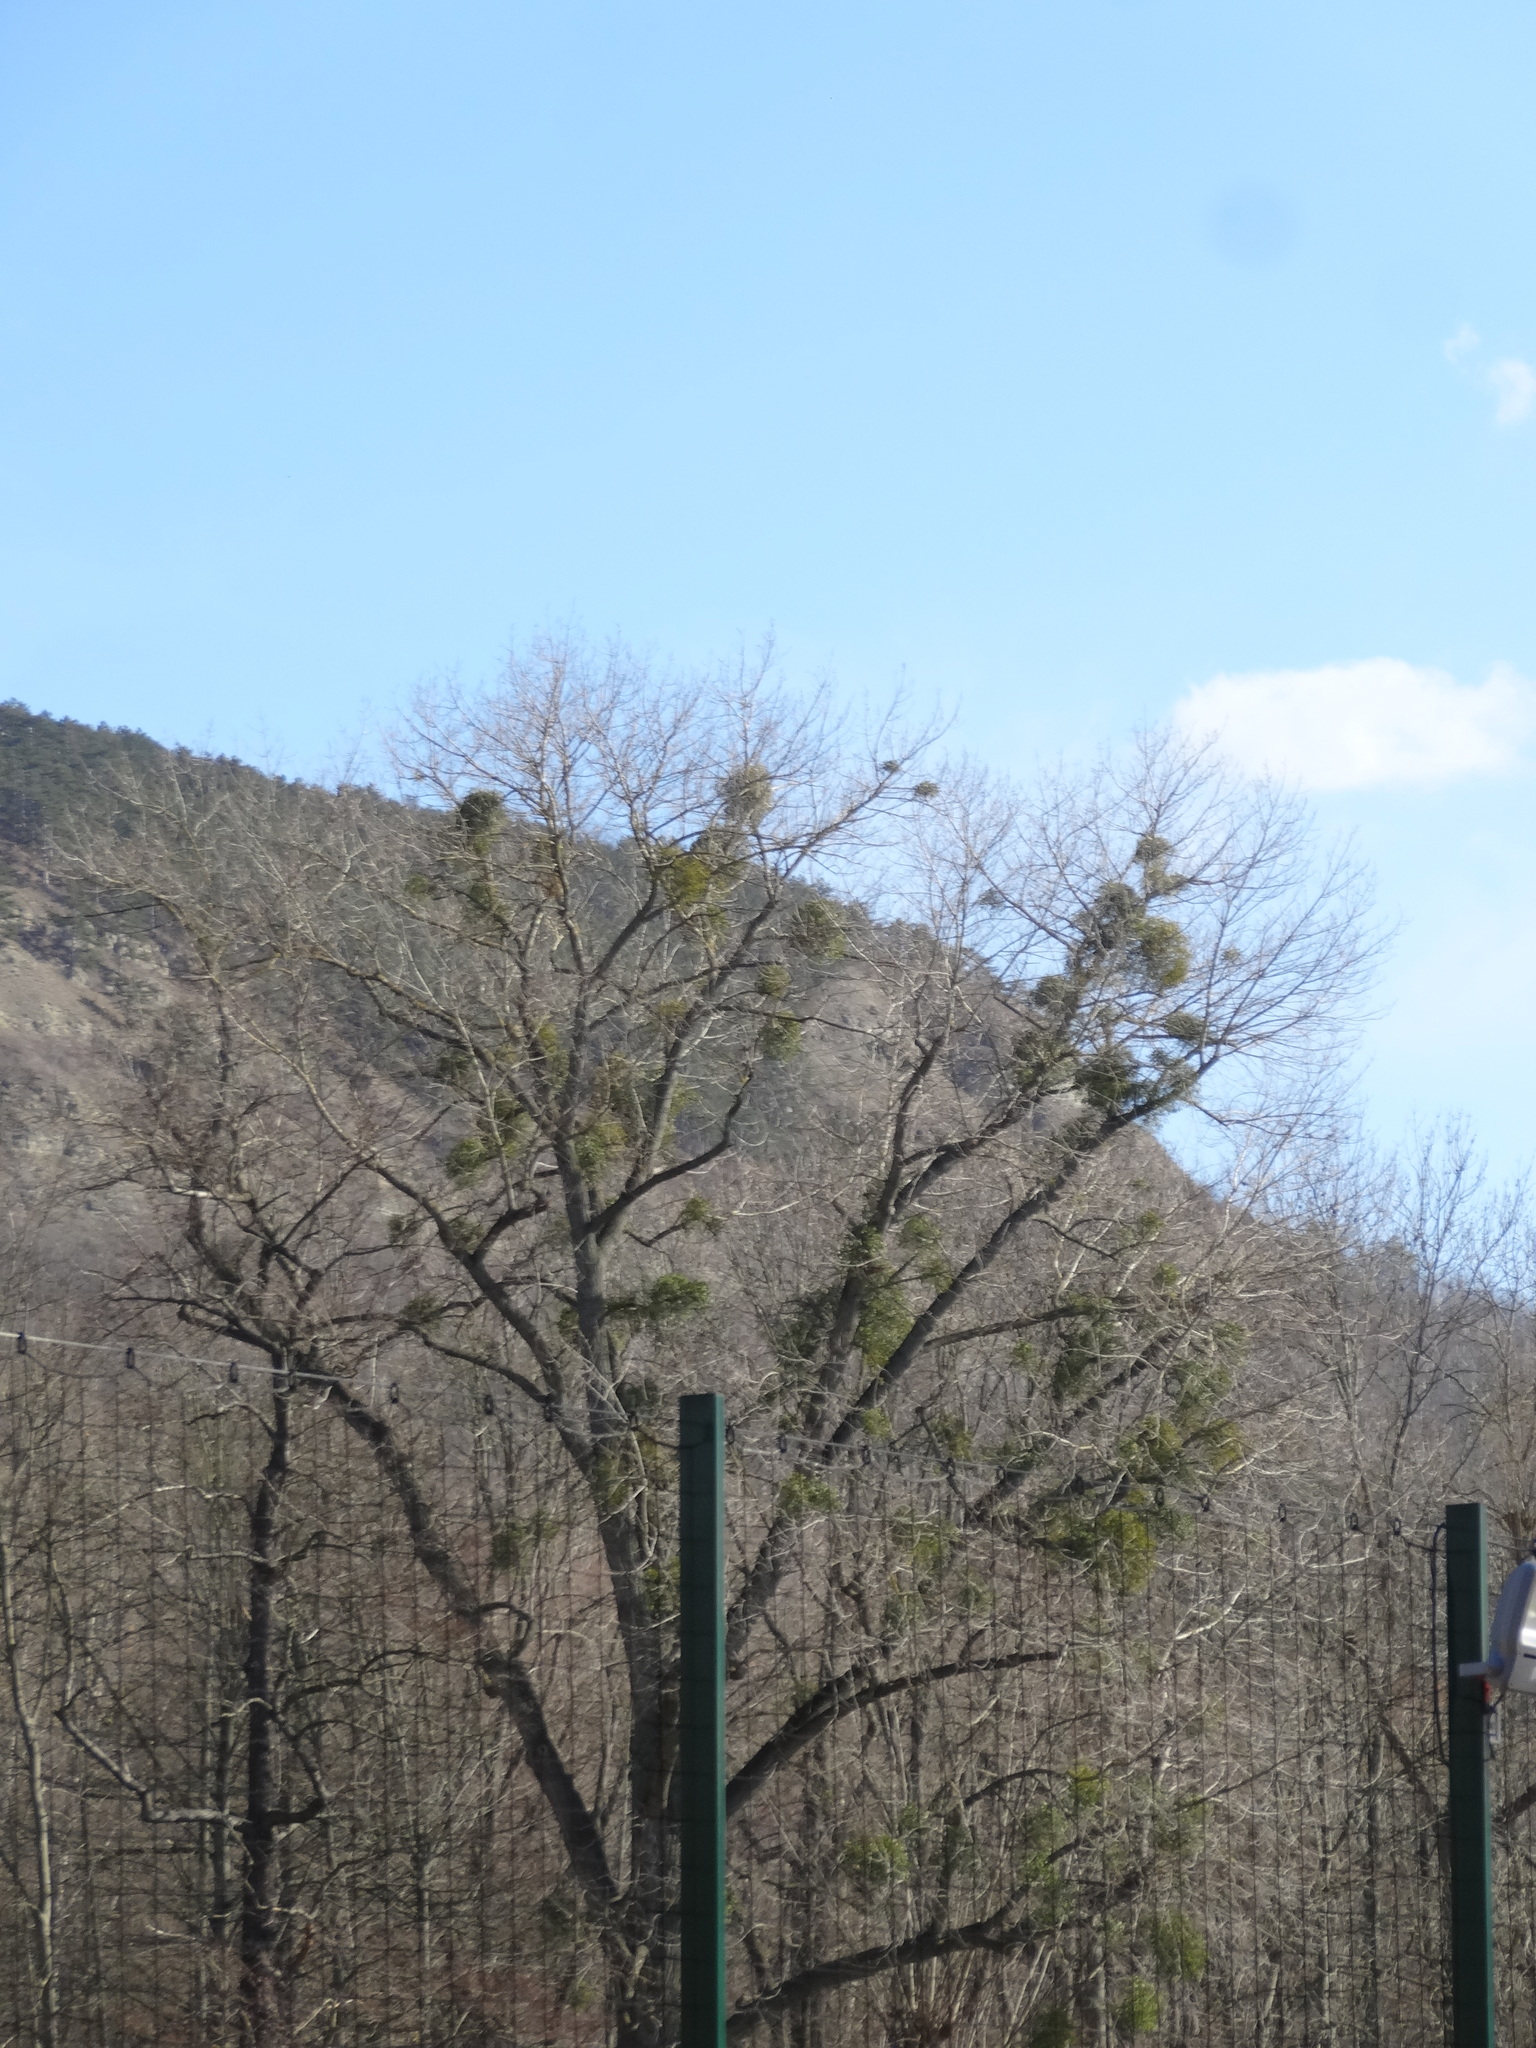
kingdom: Plantae
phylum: Tracheophyta
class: Magnoliopsida
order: Santalales
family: Viscaceae
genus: Viscum
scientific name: Viscum album
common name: Mistletoe
